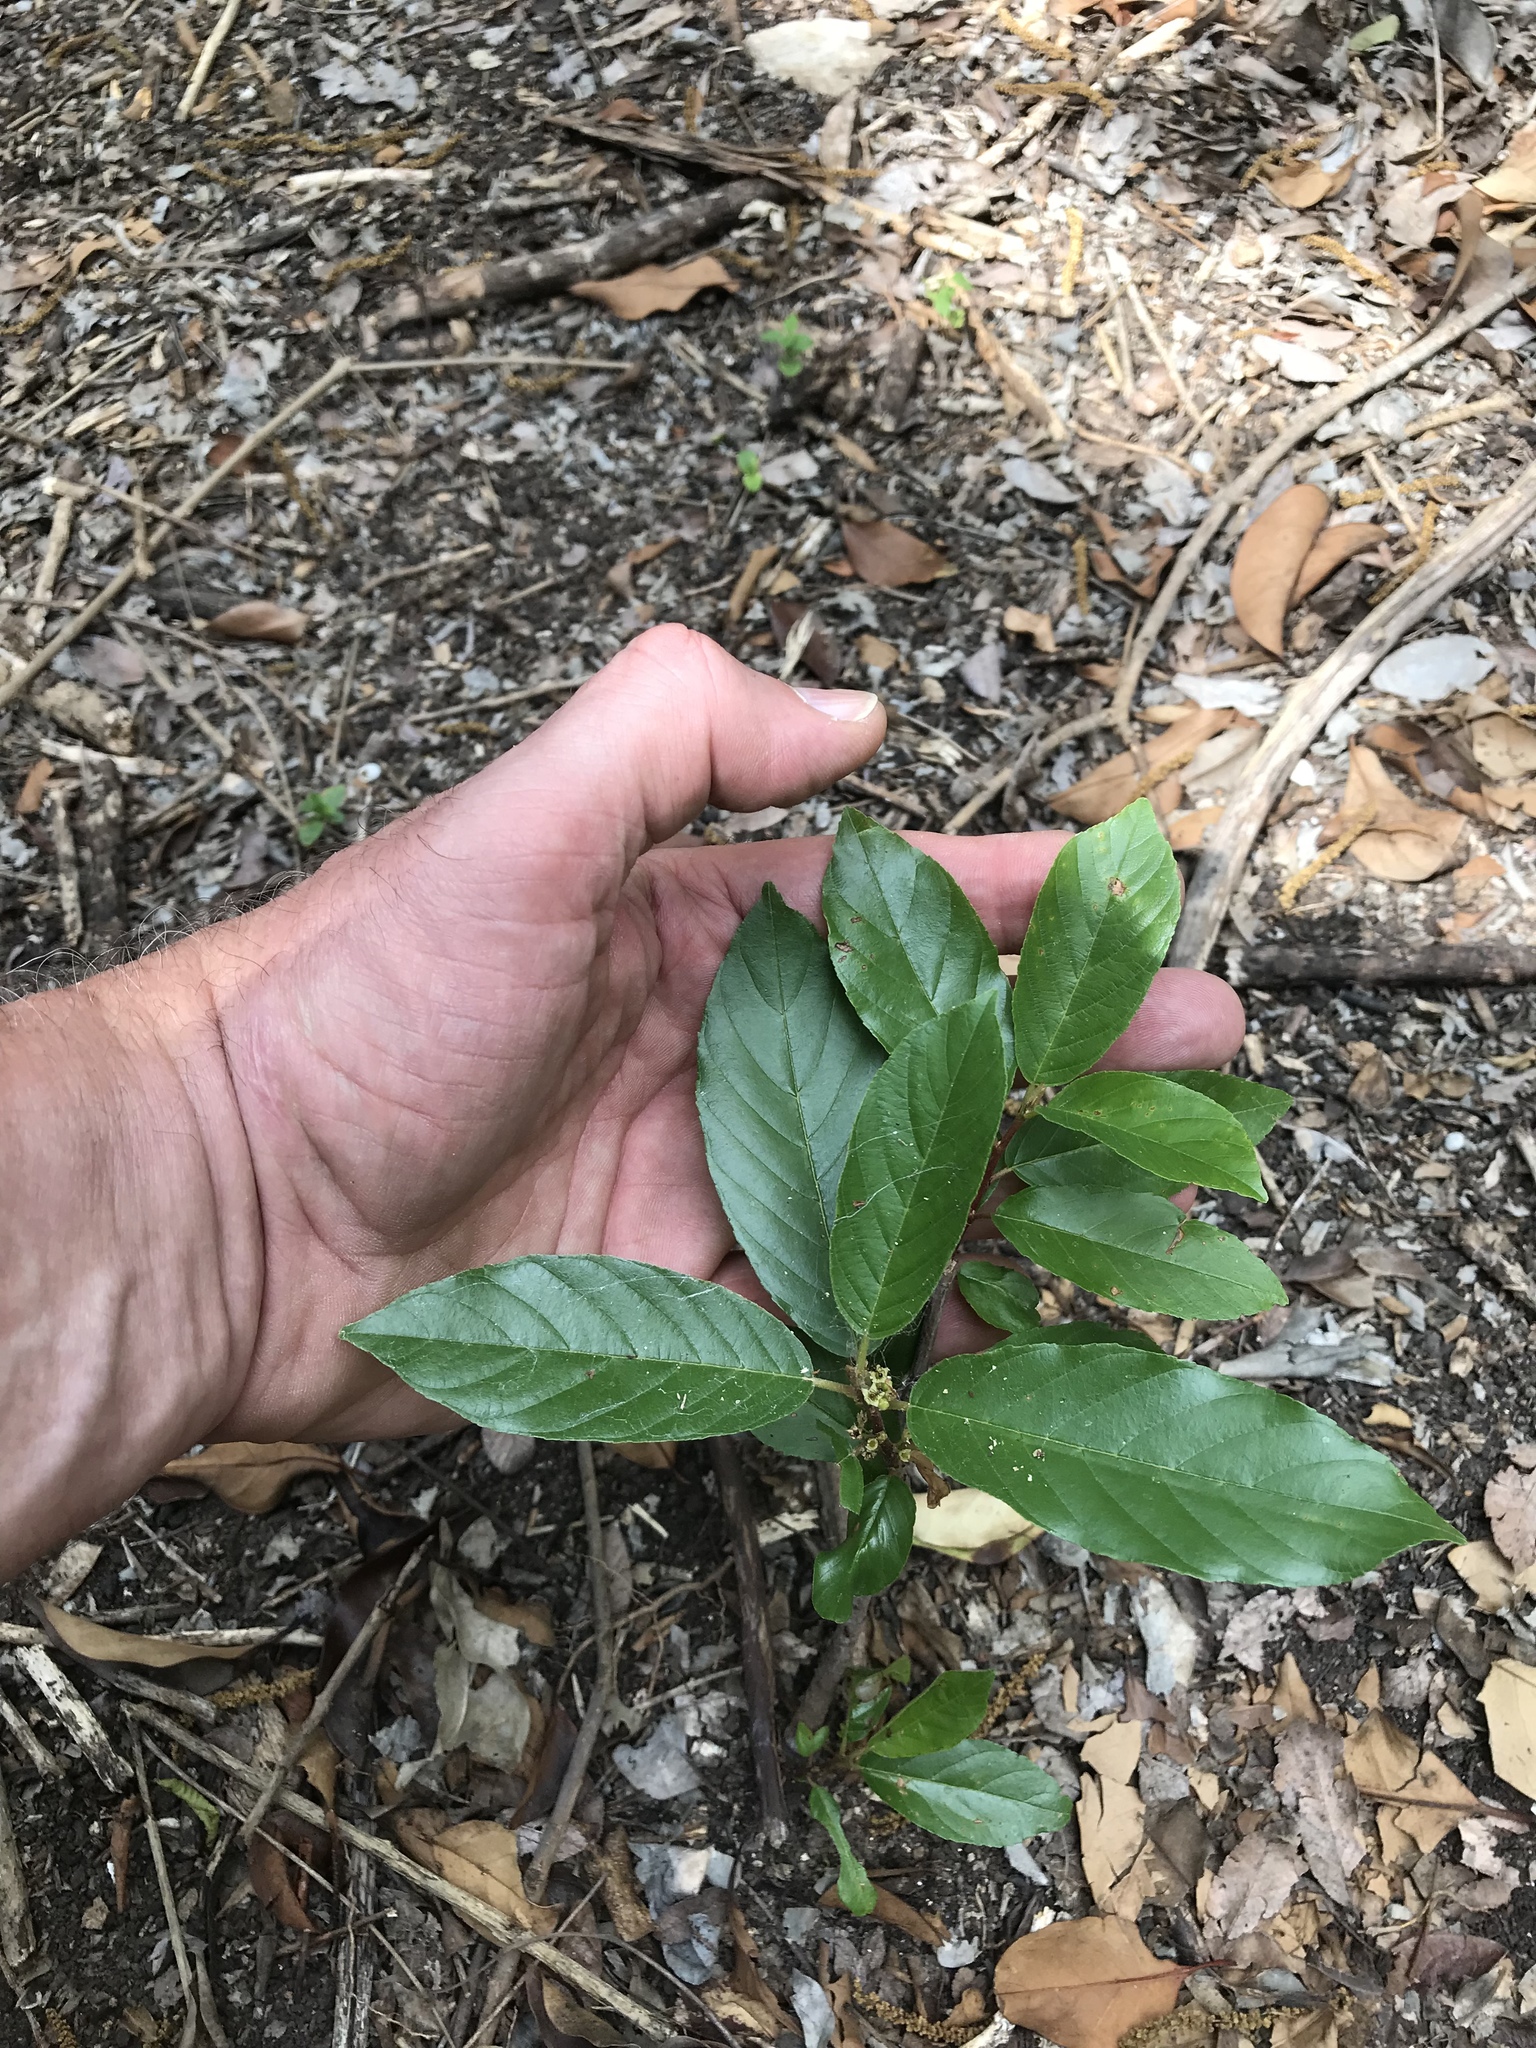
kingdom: Plantae
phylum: Tracheophyta
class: Magnoliopsida
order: Rosales
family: Rhamnaceae
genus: Frangula
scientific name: Frangula caroliniana
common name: Carolina buckthorn
